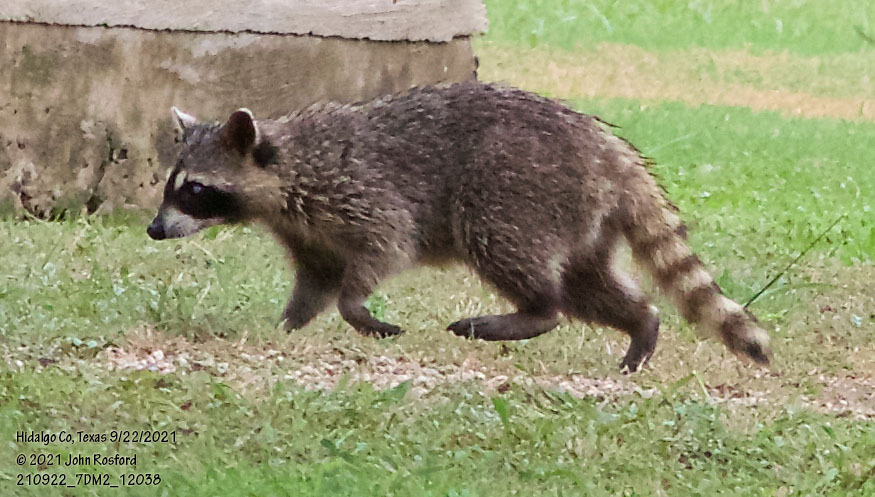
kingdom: Animalia
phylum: Chordata
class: Mammalia
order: Carnivora
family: Procyonidae
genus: Procyon
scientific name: Procyon lotor
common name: Raccoon
